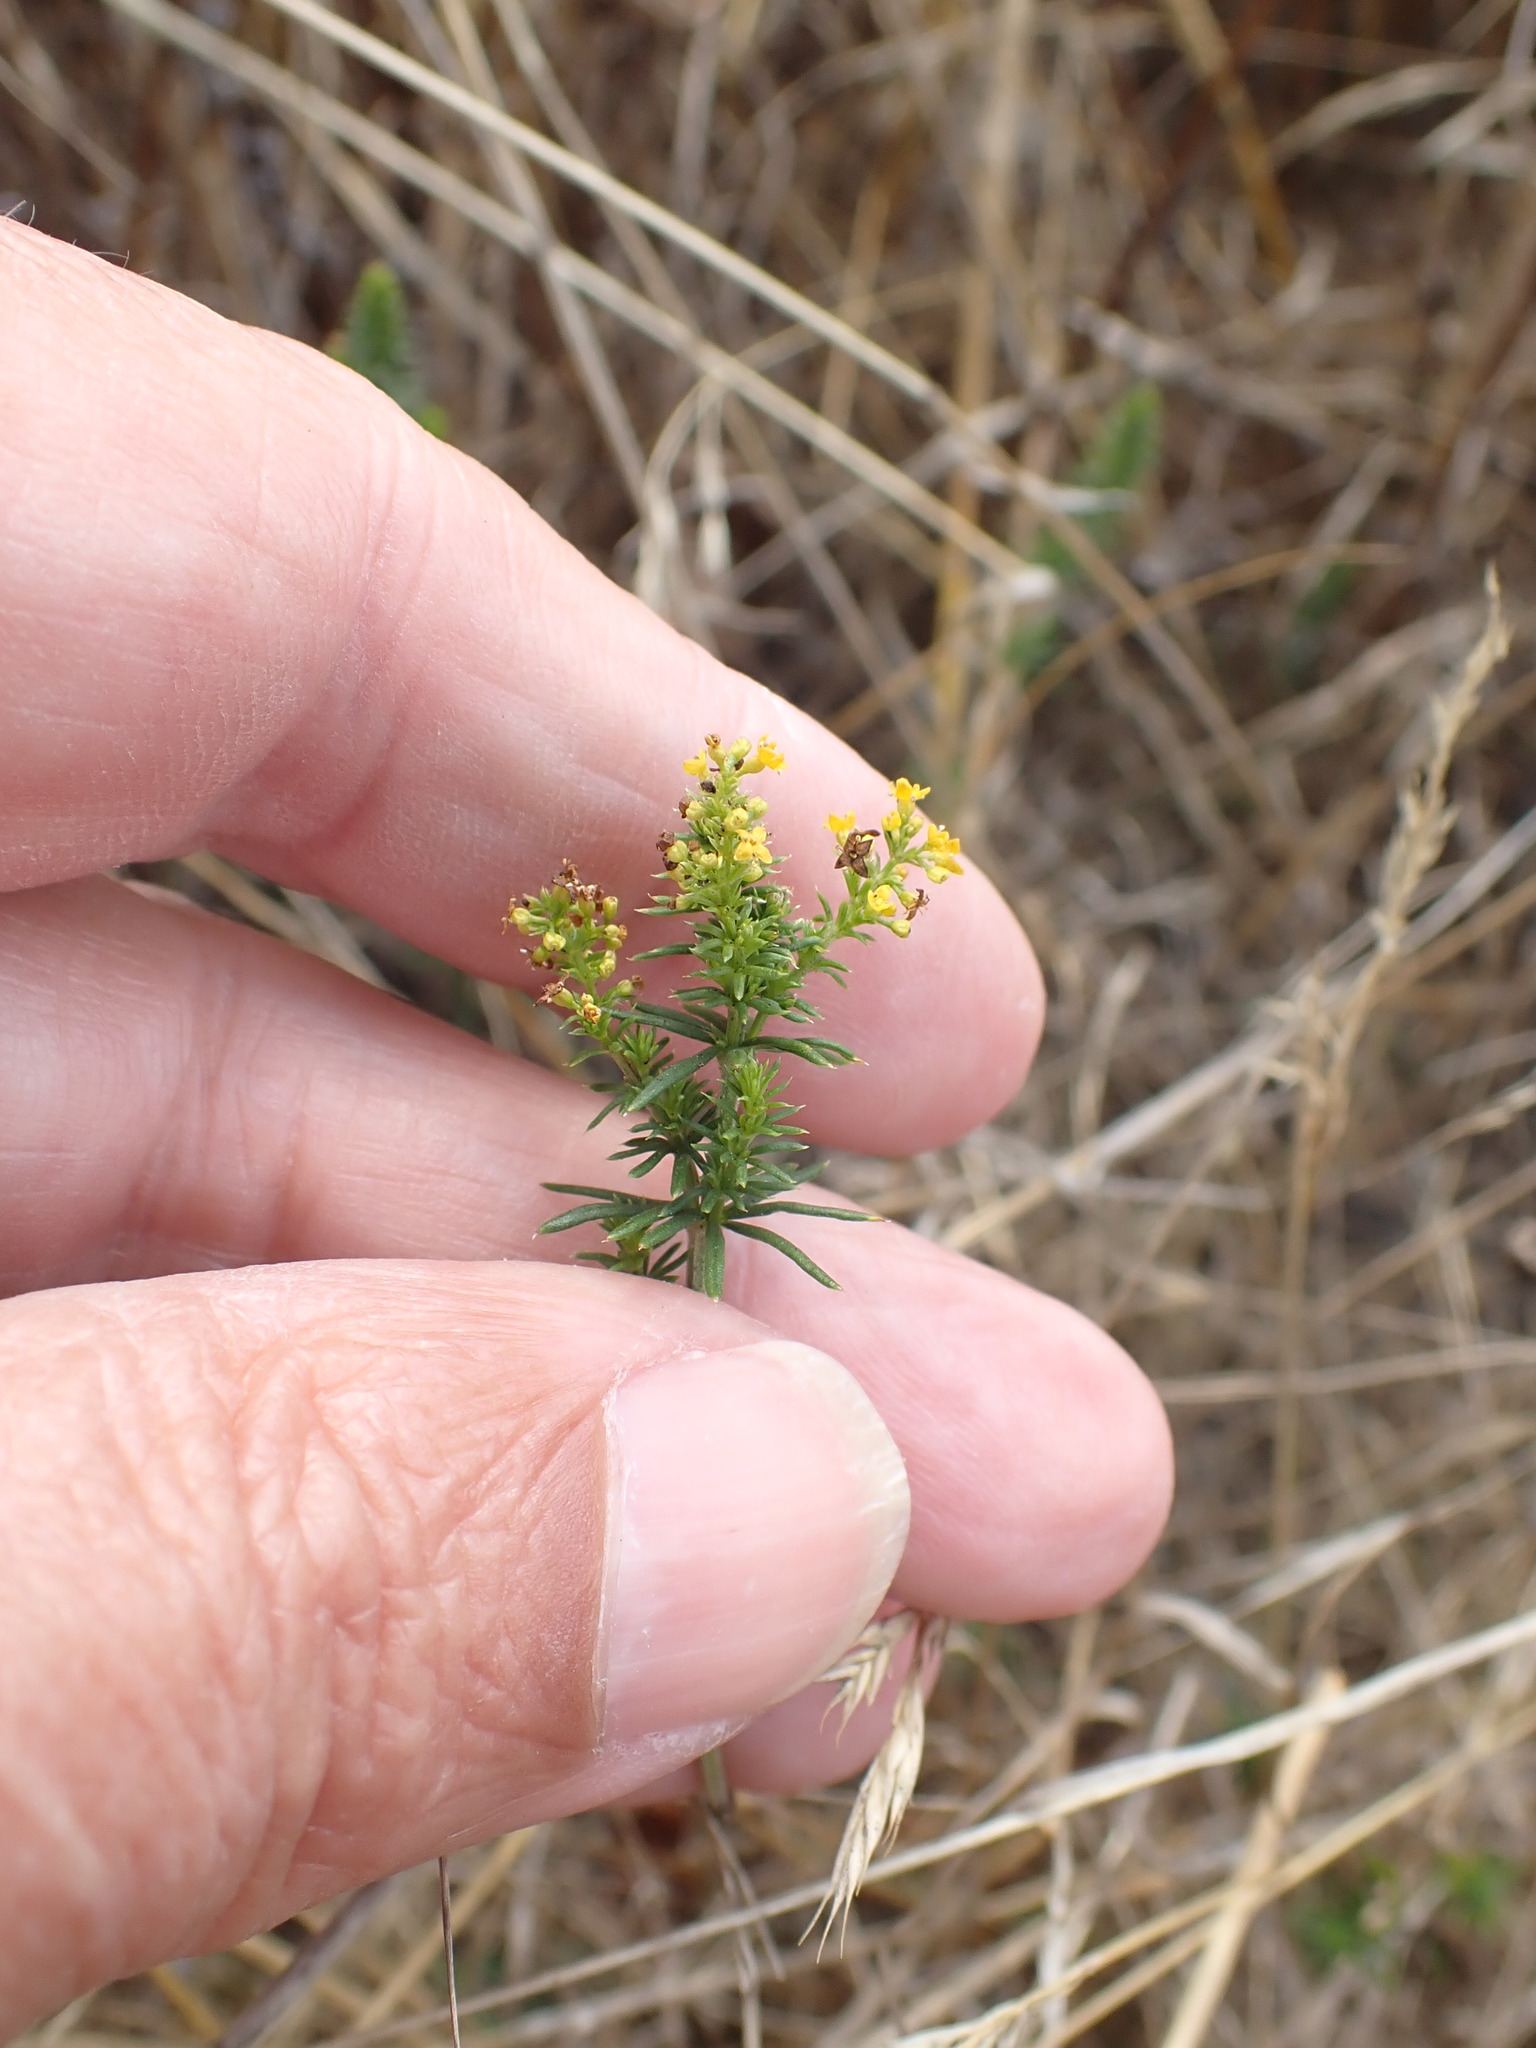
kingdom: Plantae
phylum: Tracheophyta
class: Magnoliopsida
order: Gentianales
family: Rubiaceae
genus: Galium
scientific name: Galium verum
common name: Lady's bedstraw
